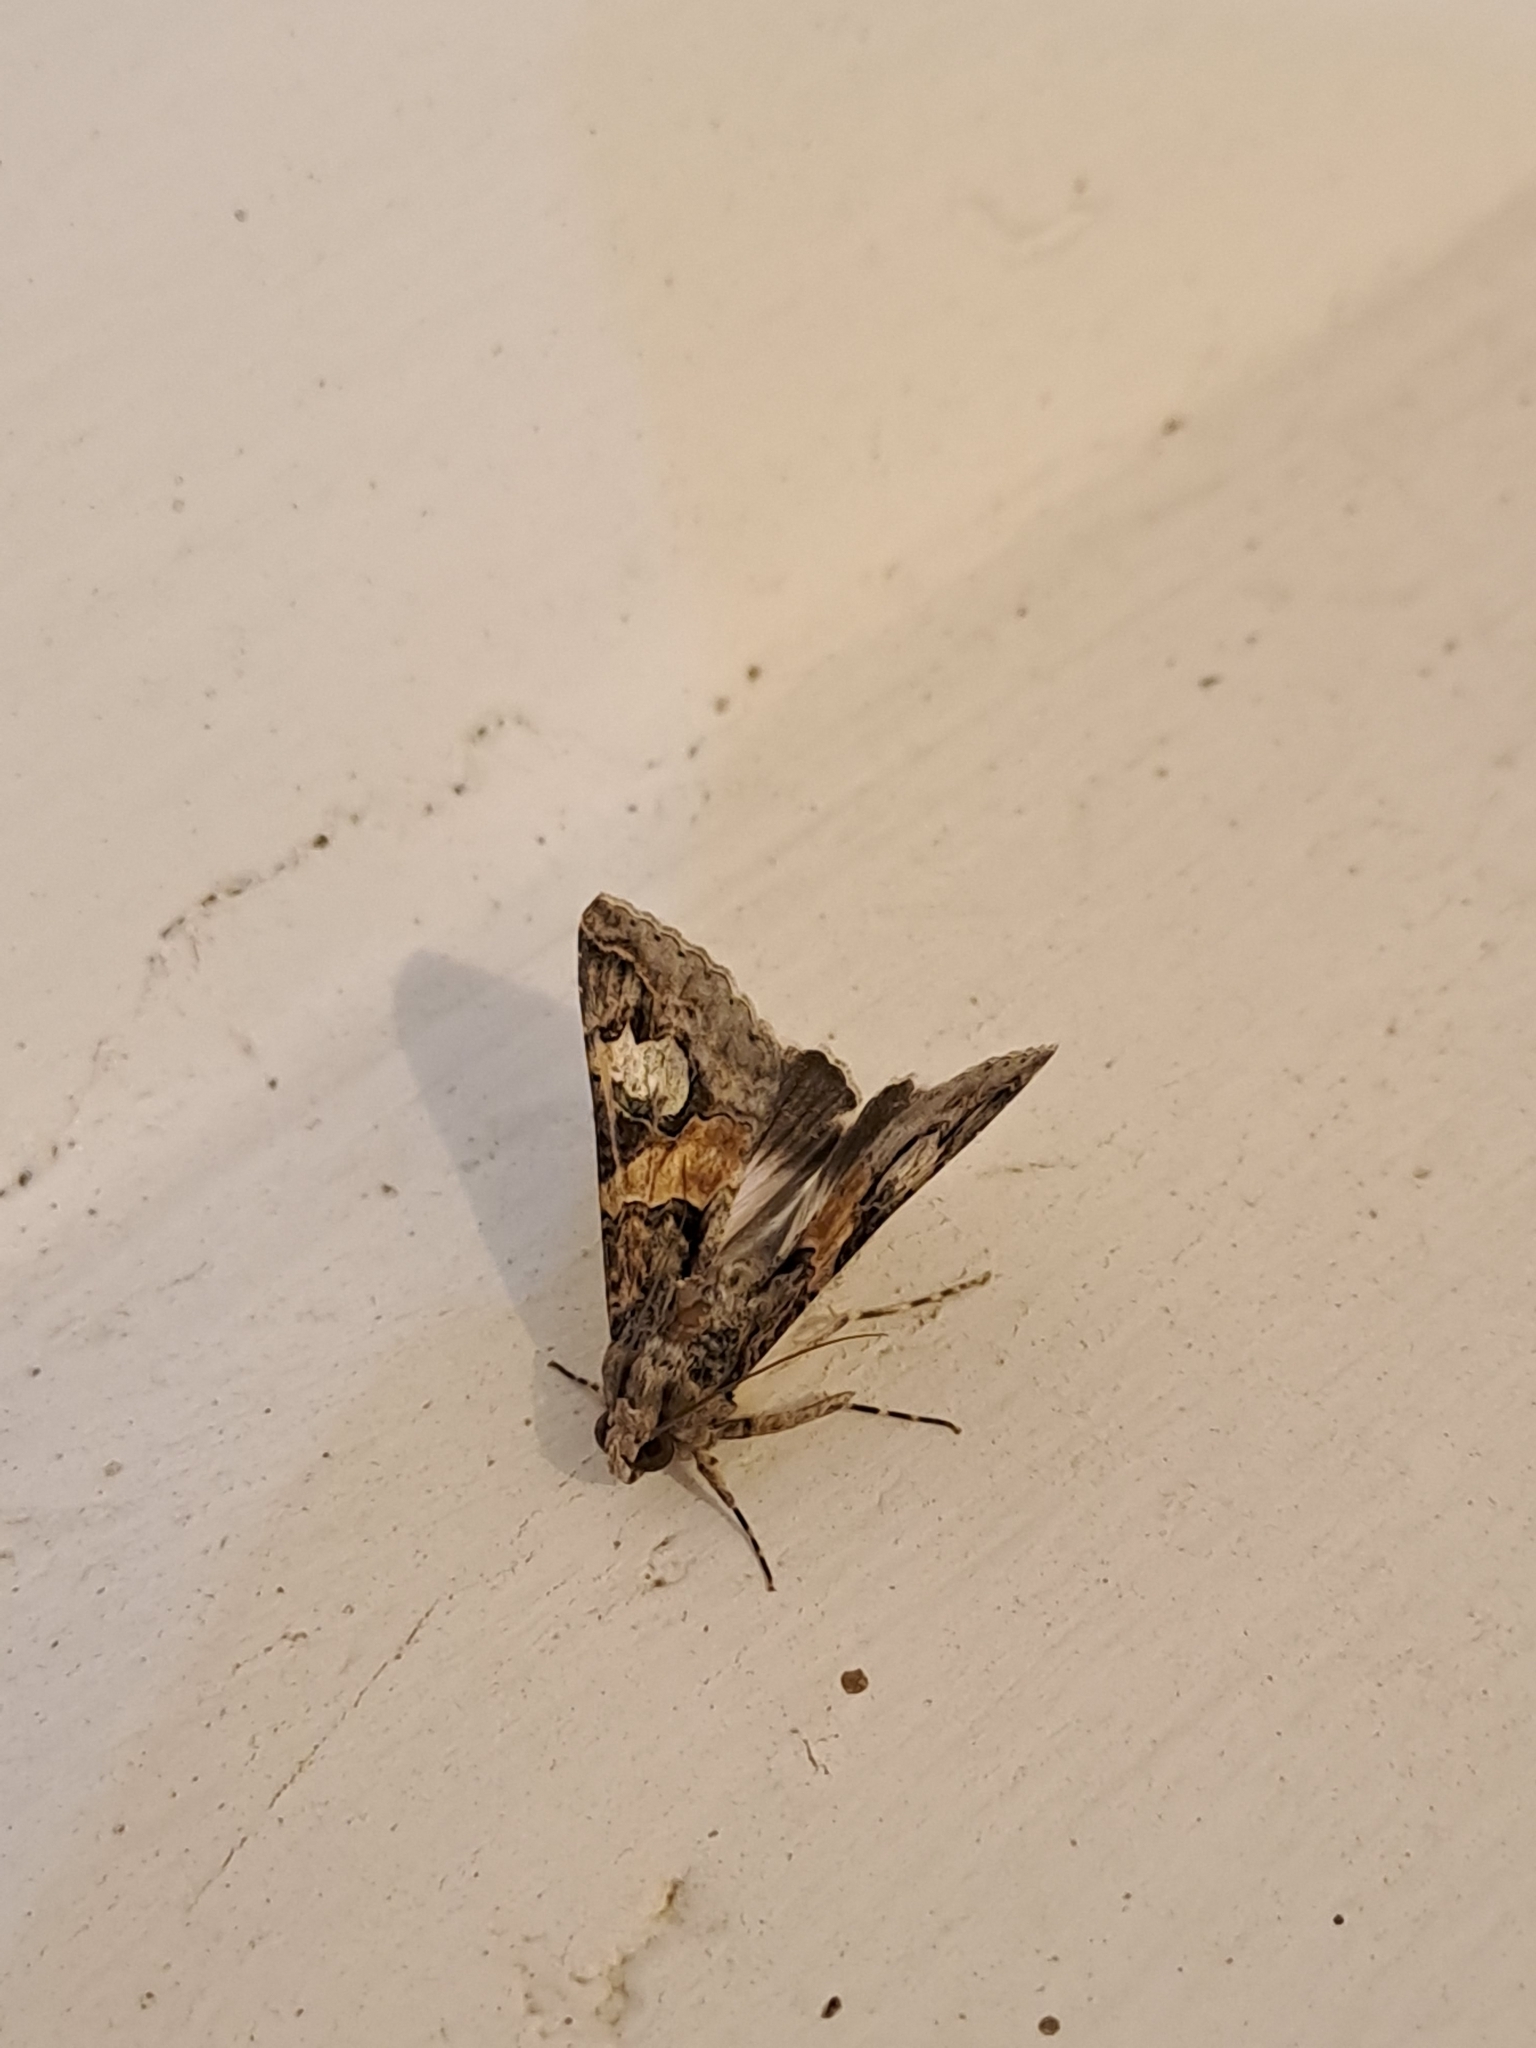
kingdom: Animalia
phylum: Arthropoda
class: Insecta
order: Lepidoptera
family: Erebidae
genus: Melipotis
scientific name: Melipotis famelica
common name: Famelica melipotis moth
